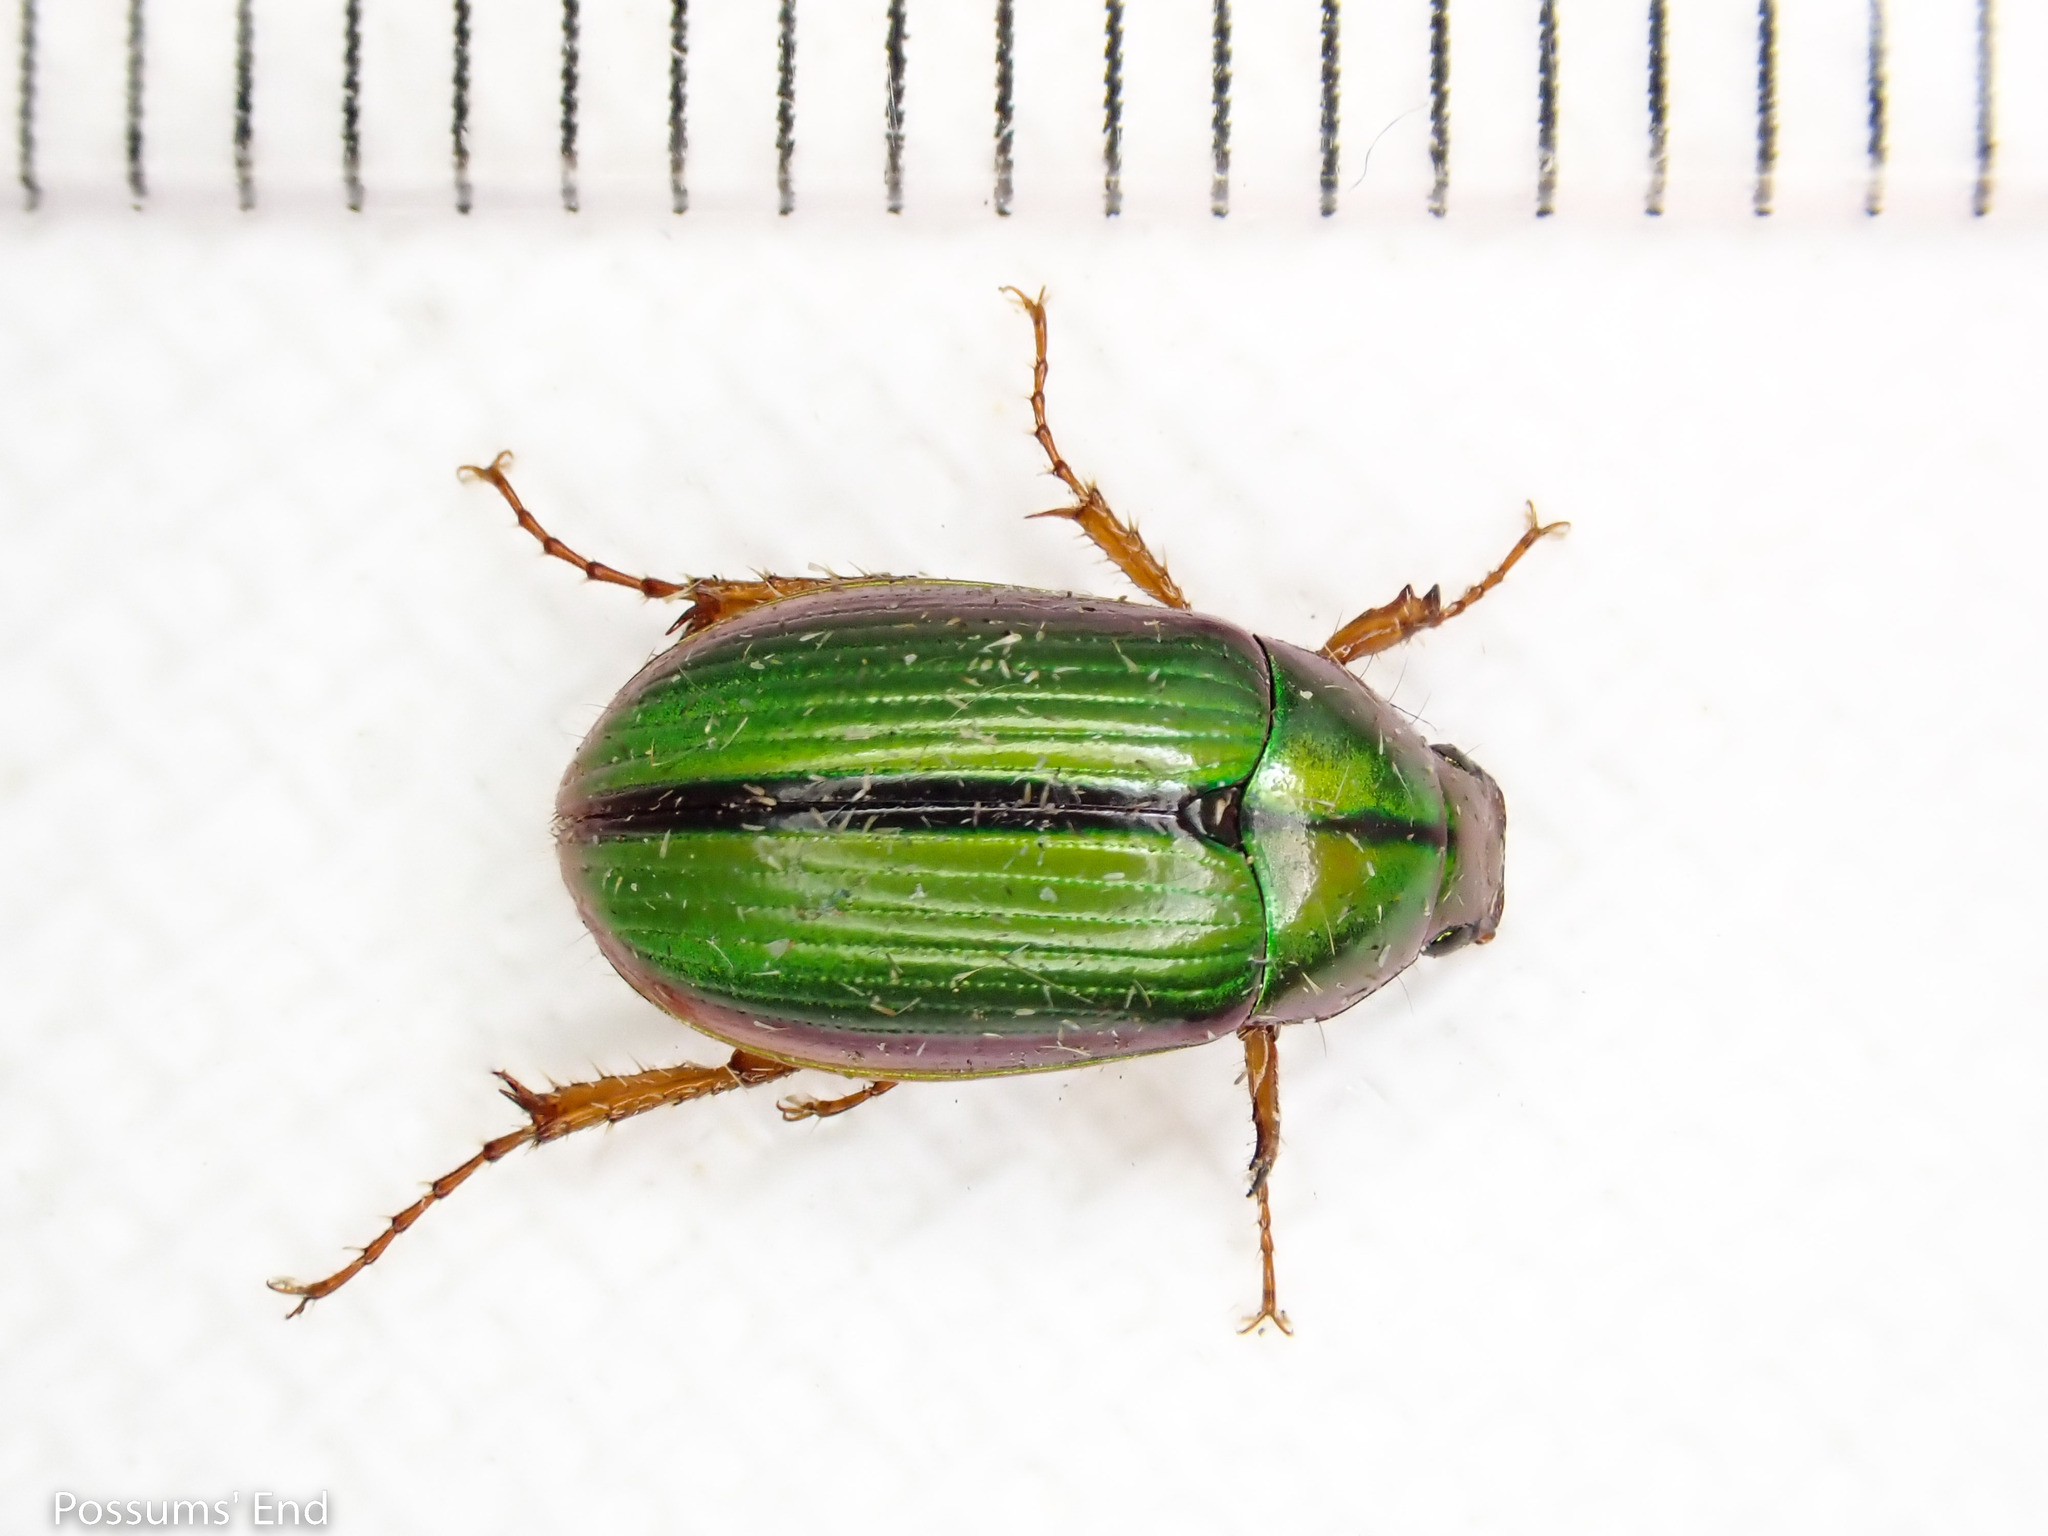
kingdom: Animalia
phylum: Arthropoda
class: Insecta
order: Coleoptera
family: Scarabaeidae
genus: Pyronota
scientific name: Pyronota festiva
